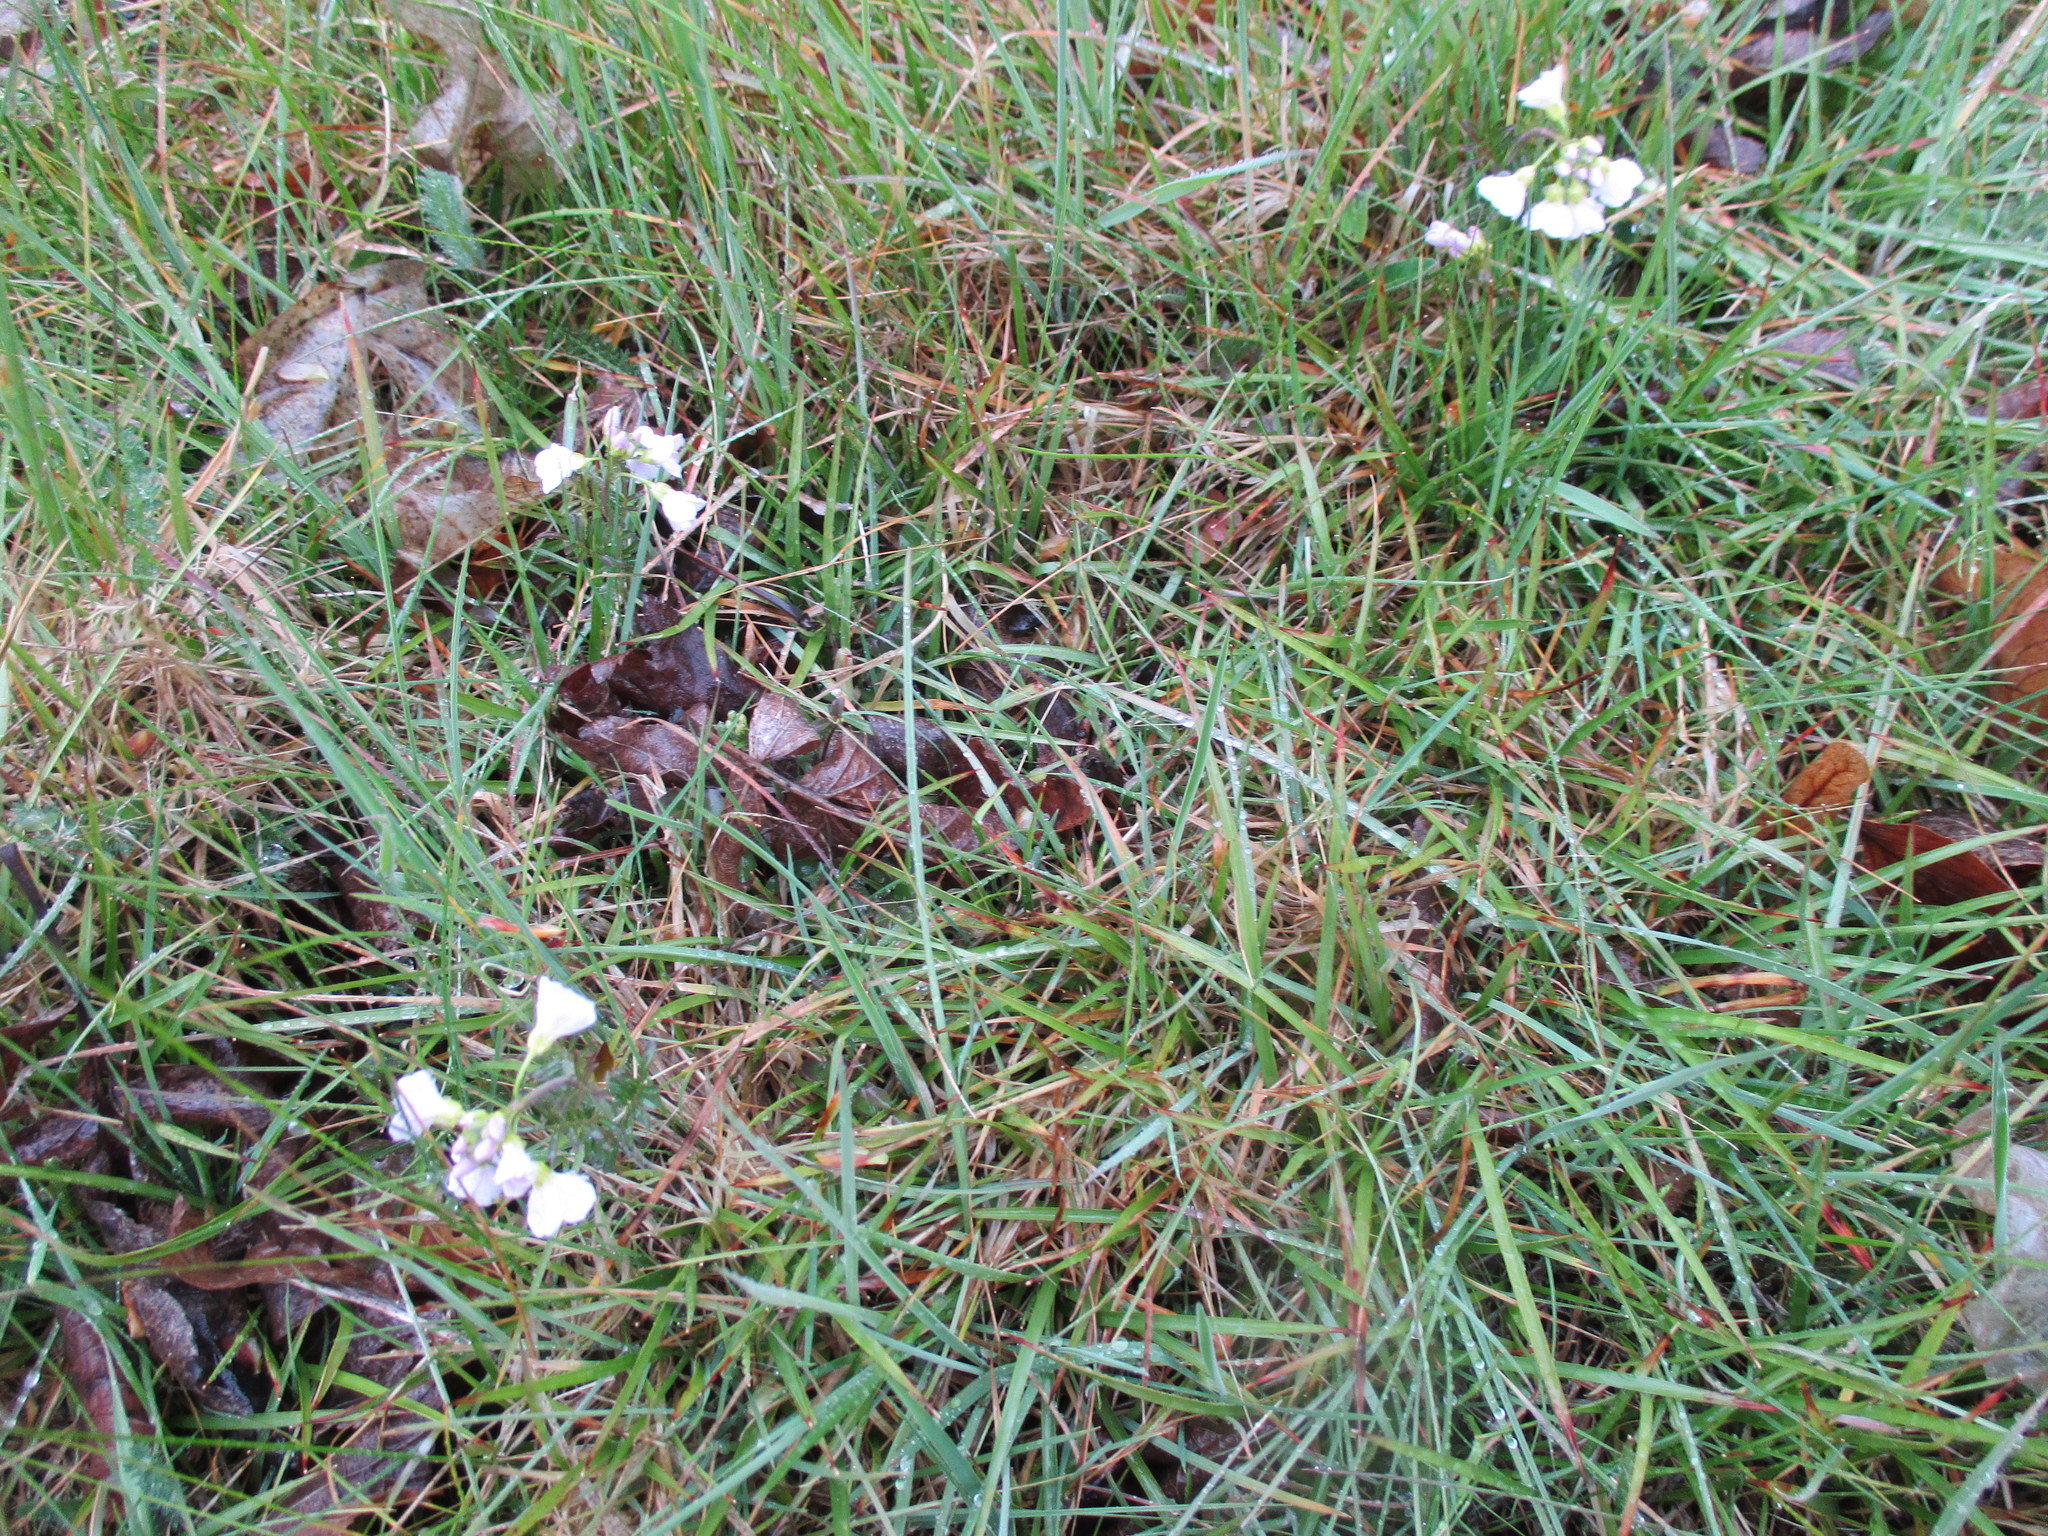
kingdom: Plantae
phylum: Tracheophyta
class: Magnoliopsida
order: Brassicales
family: Brassicaceae
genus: Cardamine
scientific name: Cardamine pratensis
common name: Cuckoo flower
